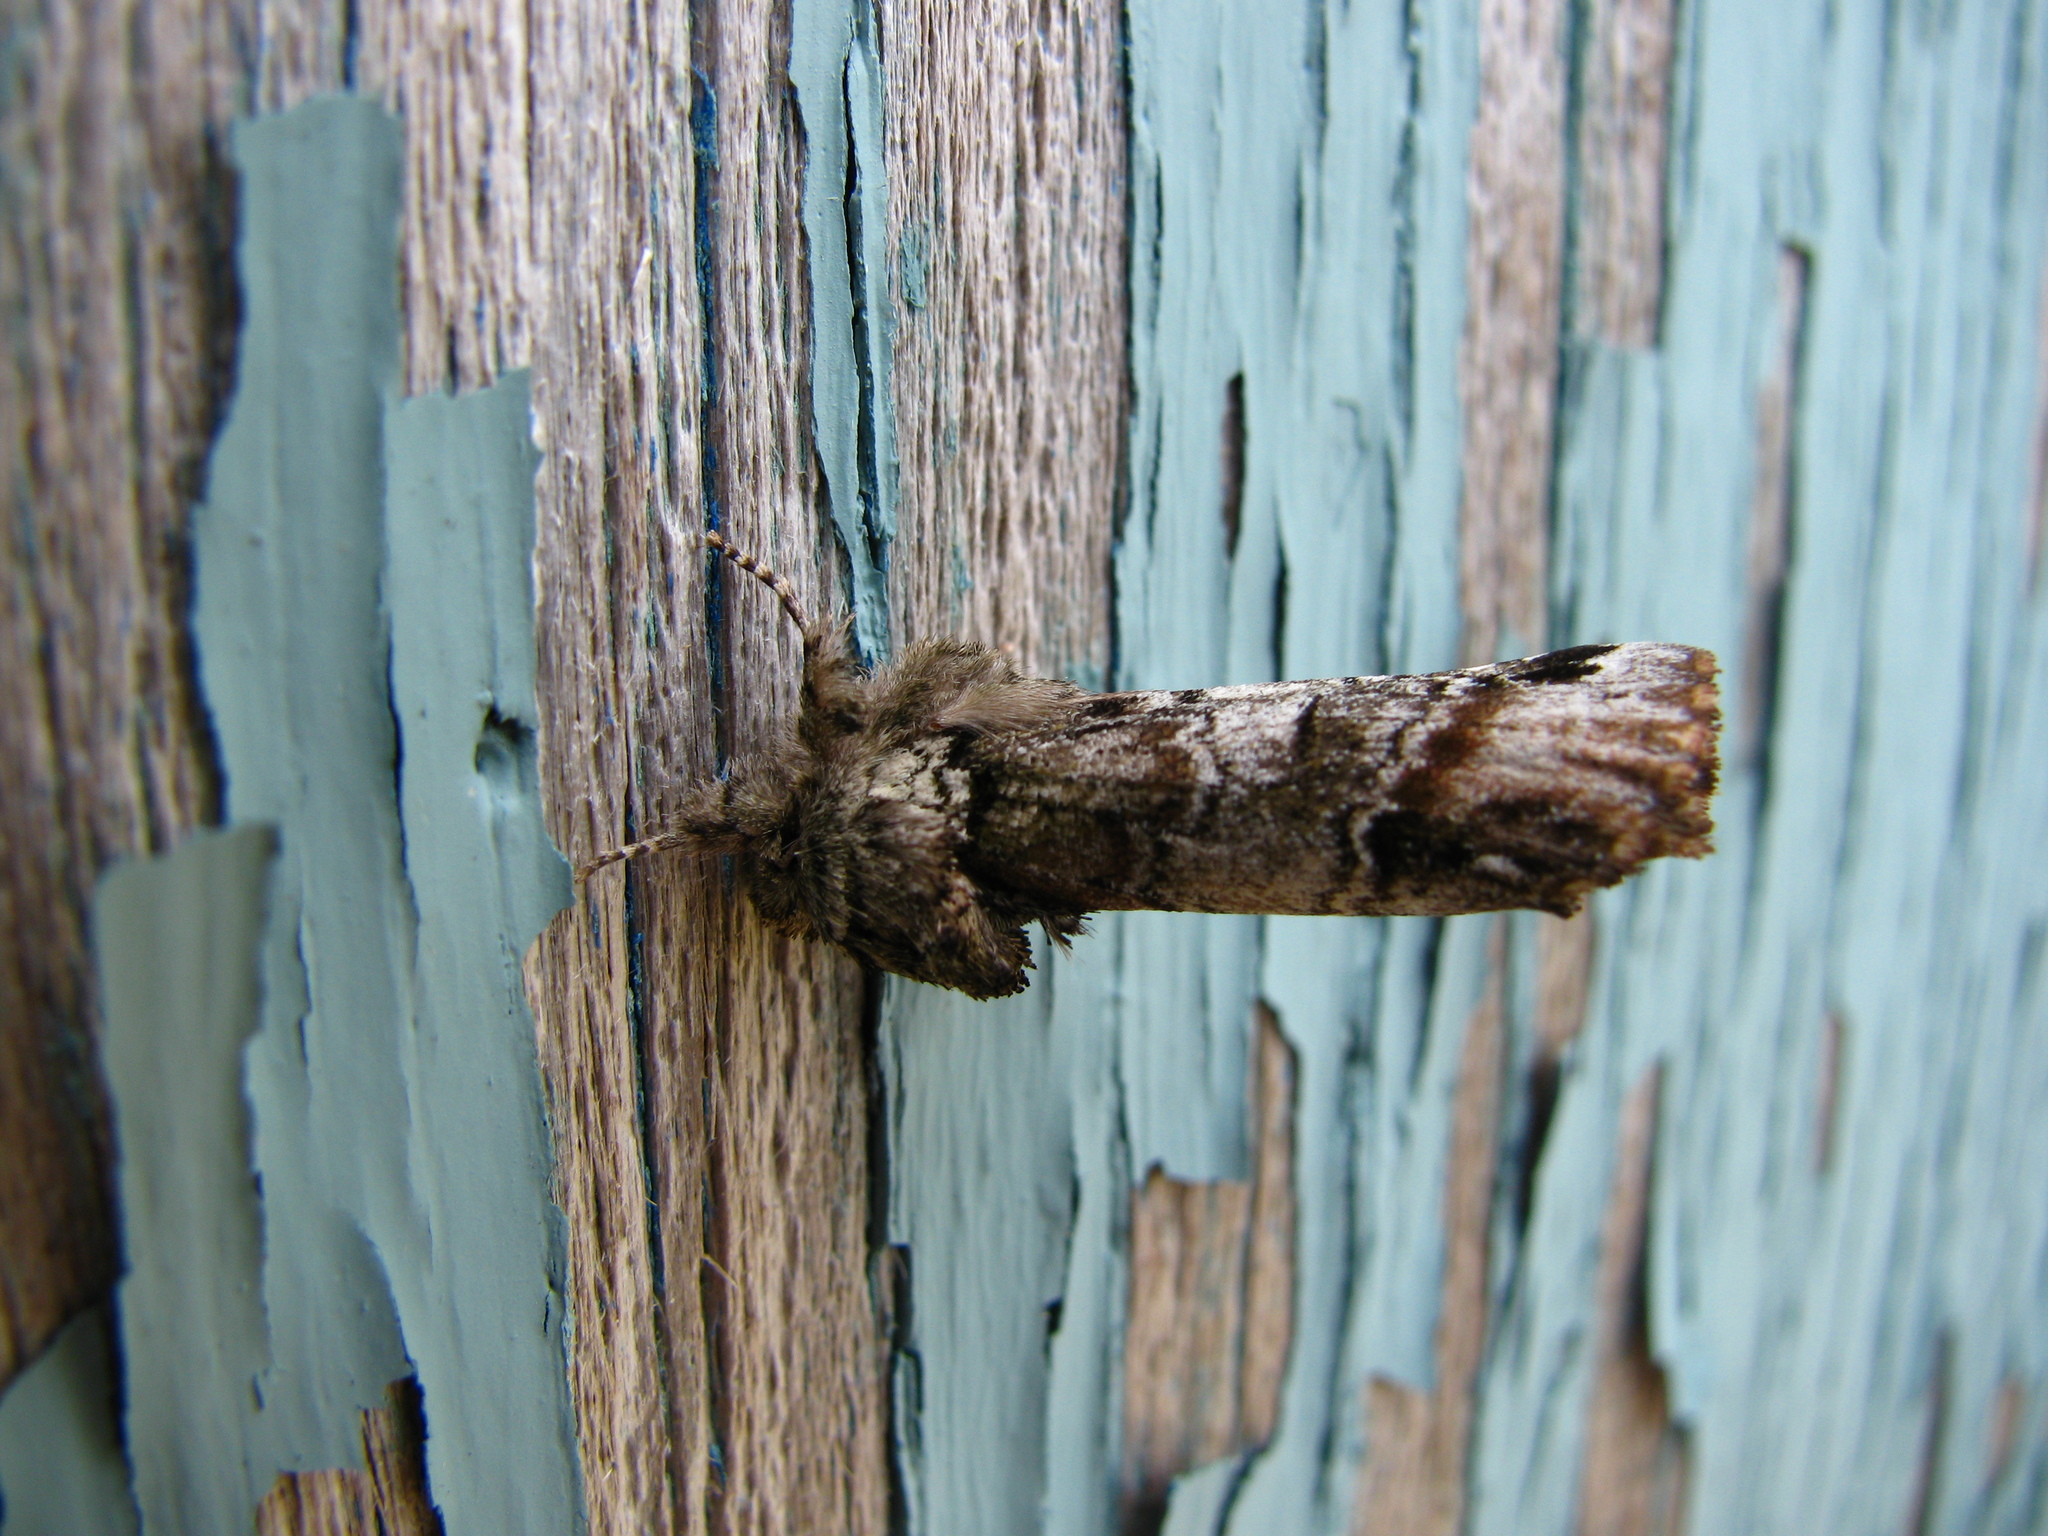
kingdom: Animalia
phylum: Arthropoda
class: Insecta
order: Lepidoptera
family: Notodontidae
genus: Schizura
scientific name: Schizura
